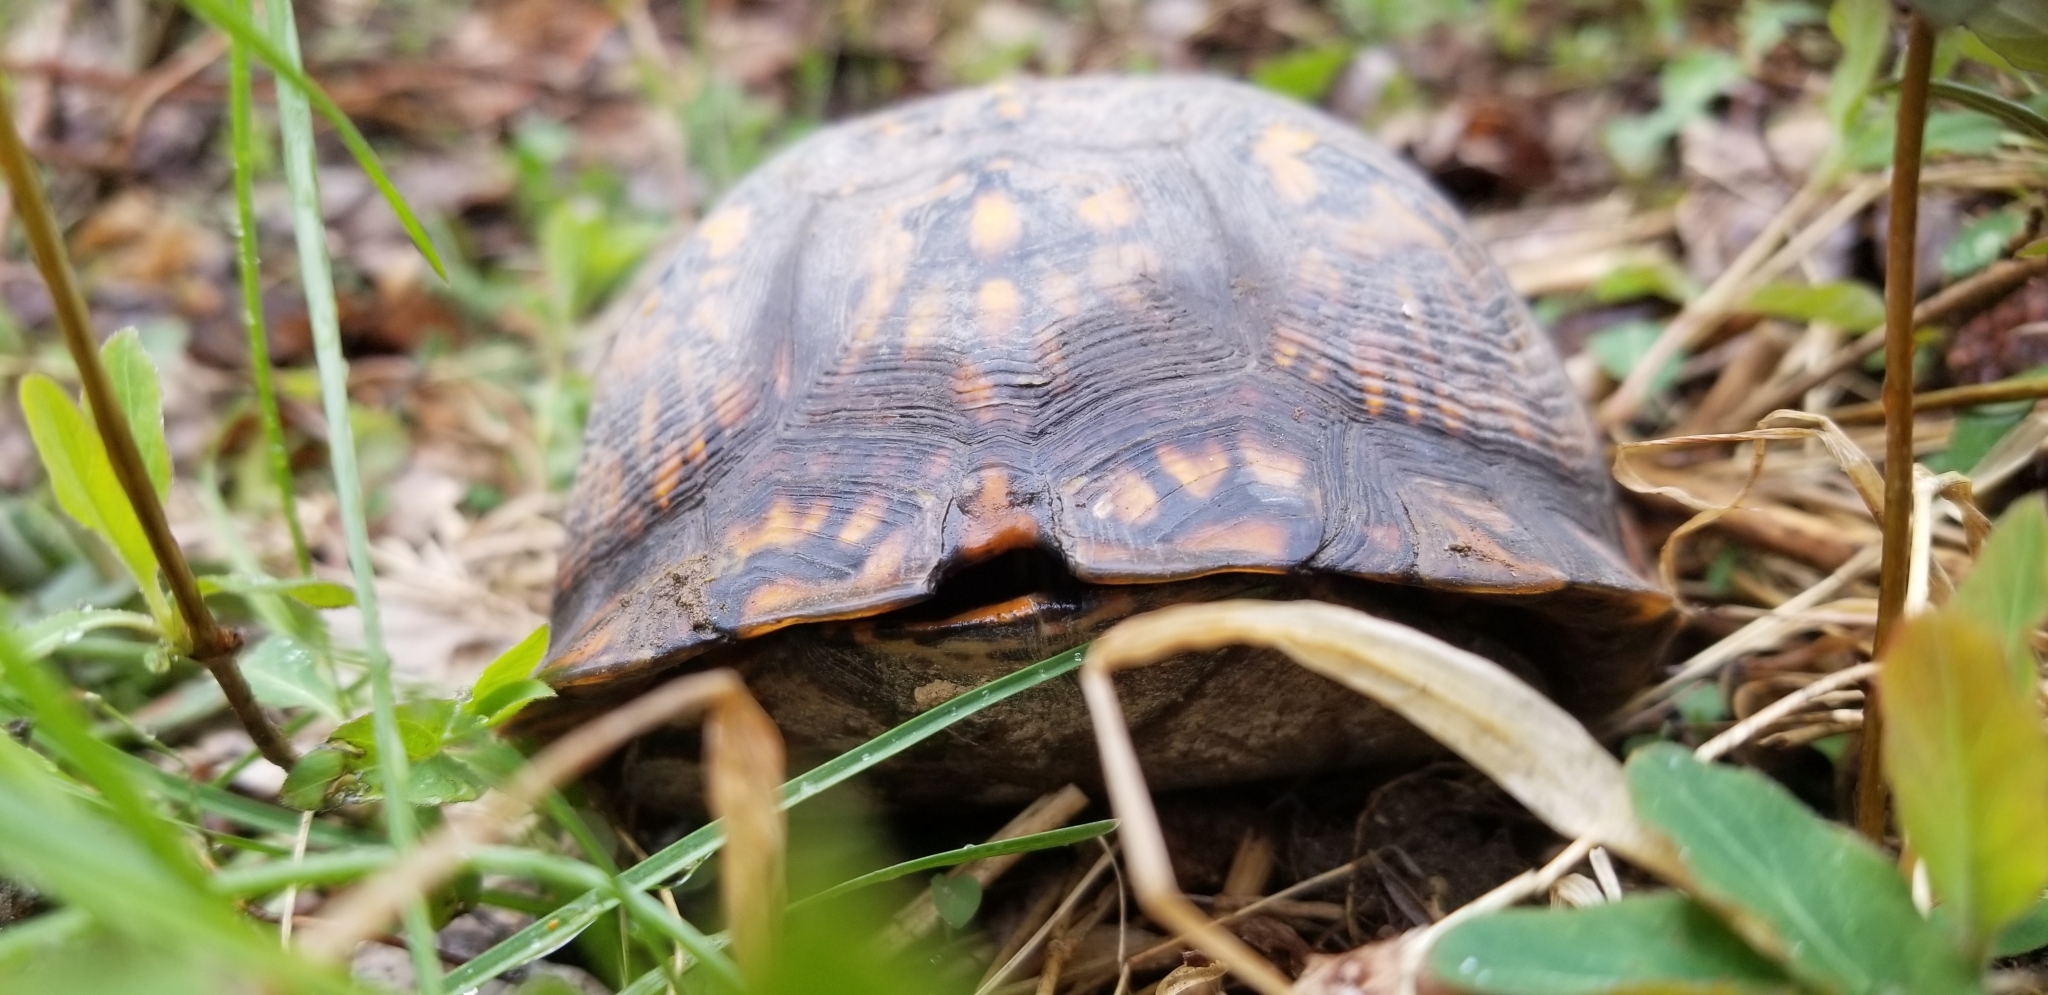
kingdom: Animalia
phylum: Chordata
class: Testudines
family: Emydidae
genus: Terrapene
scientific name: Terrapene carolina
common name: Common box turtle
